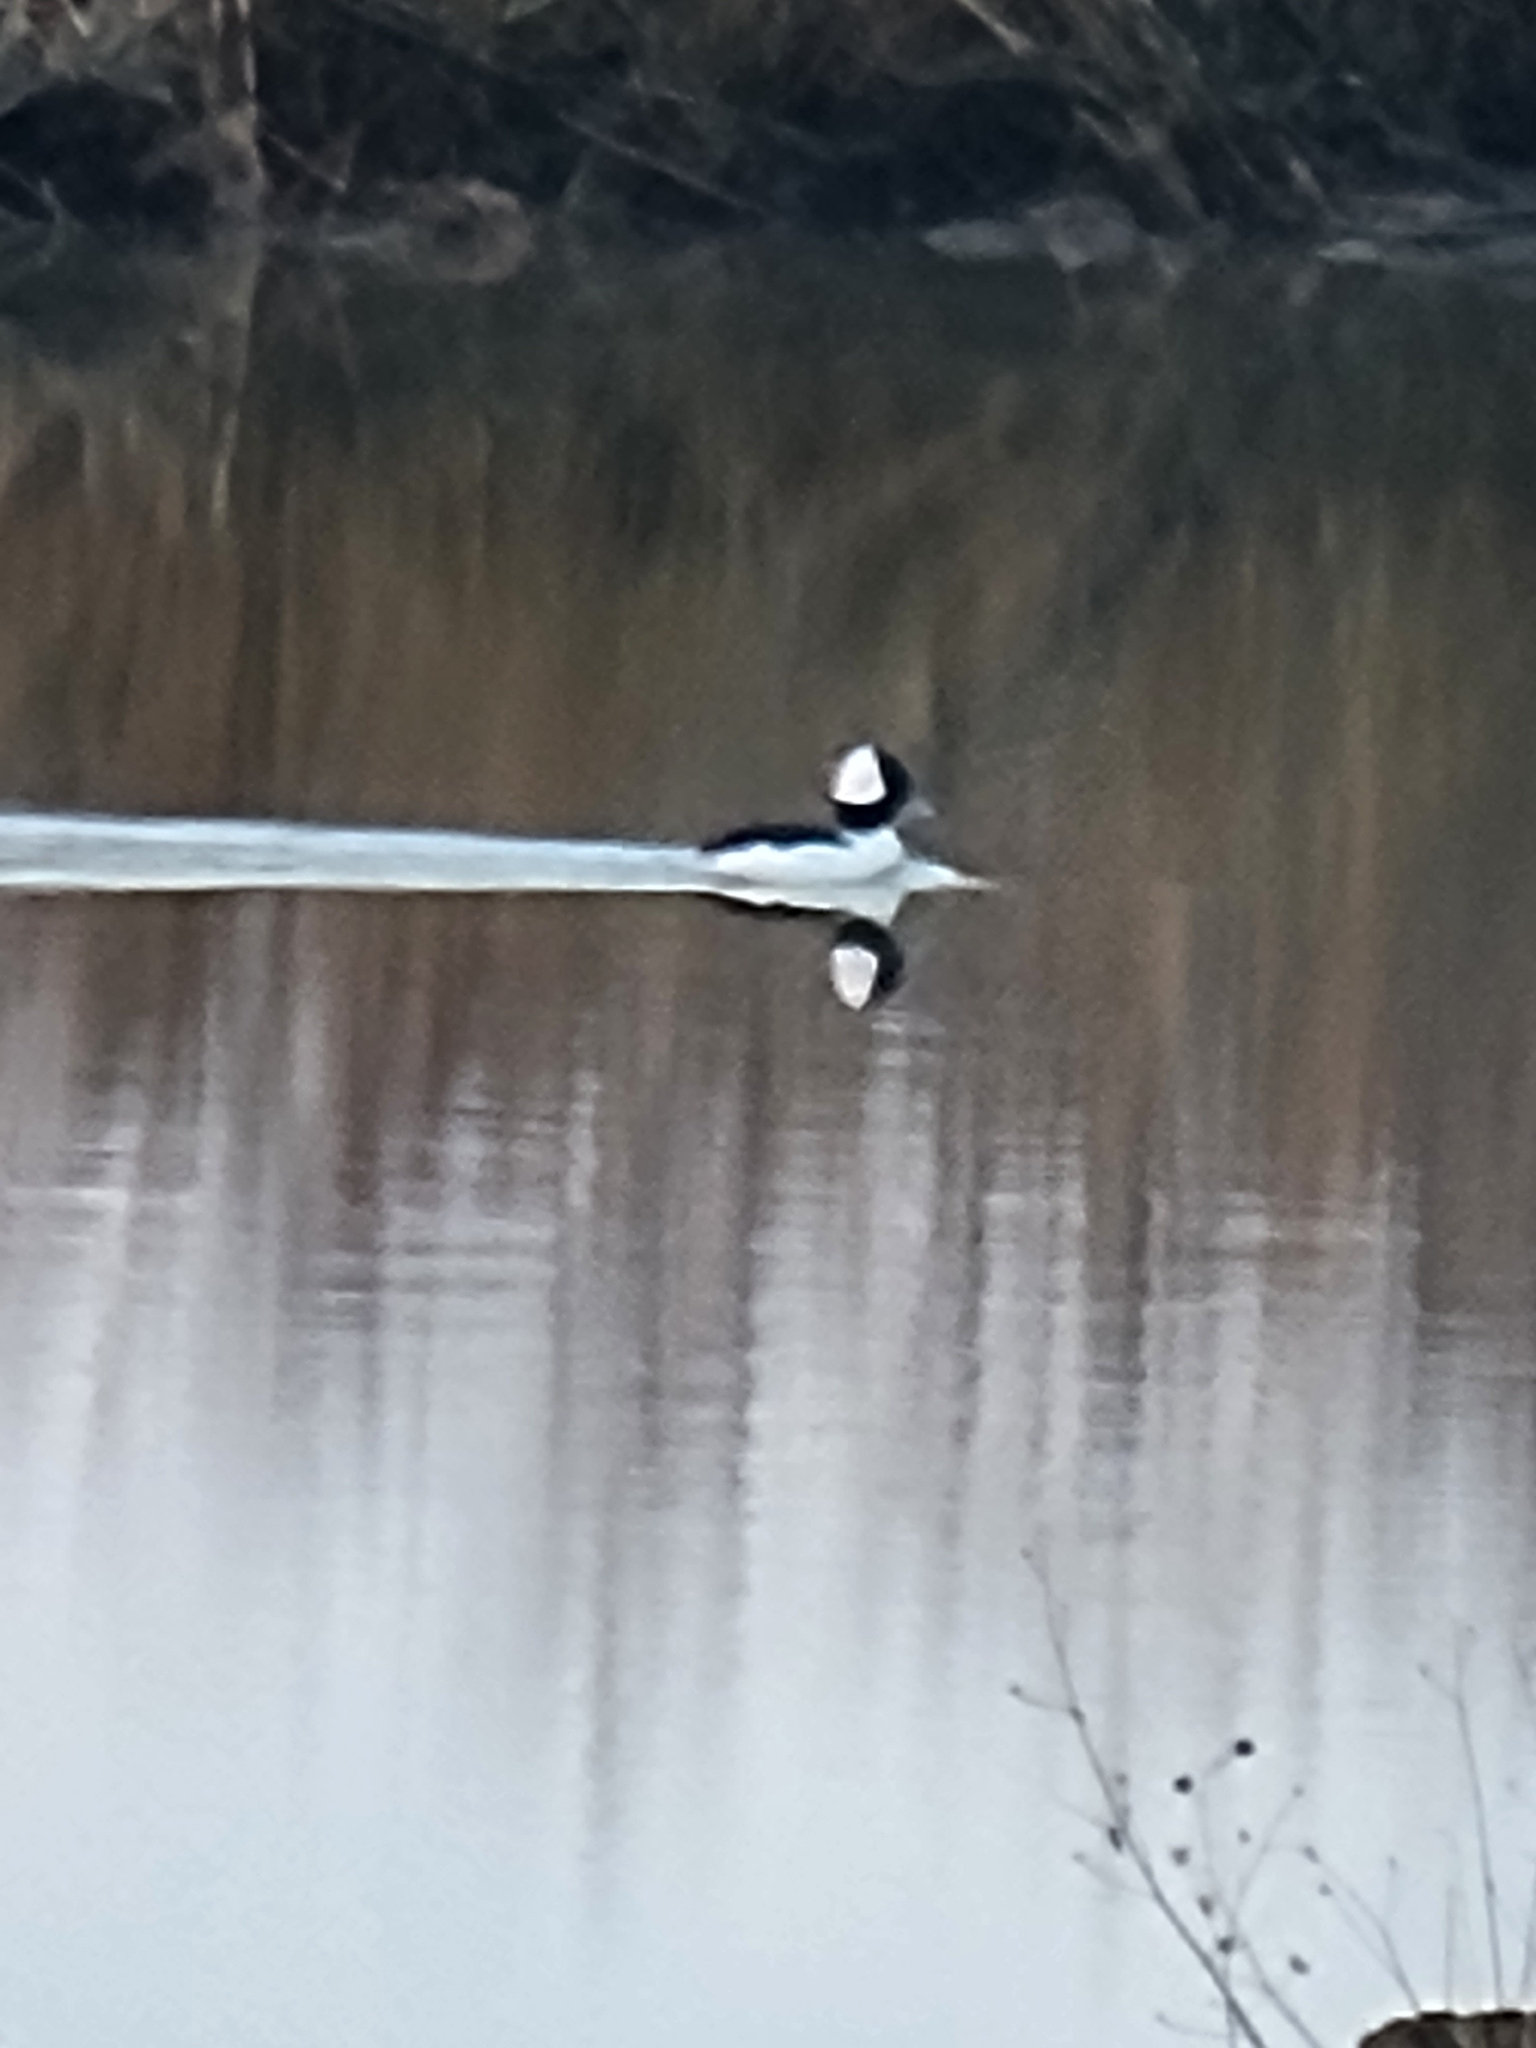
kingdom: Animalia
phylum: Chordata
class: Aves
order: Anseriformes
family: Anatidae
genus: Bucephala
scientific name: Bucephala albeola
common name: Bufflehead
